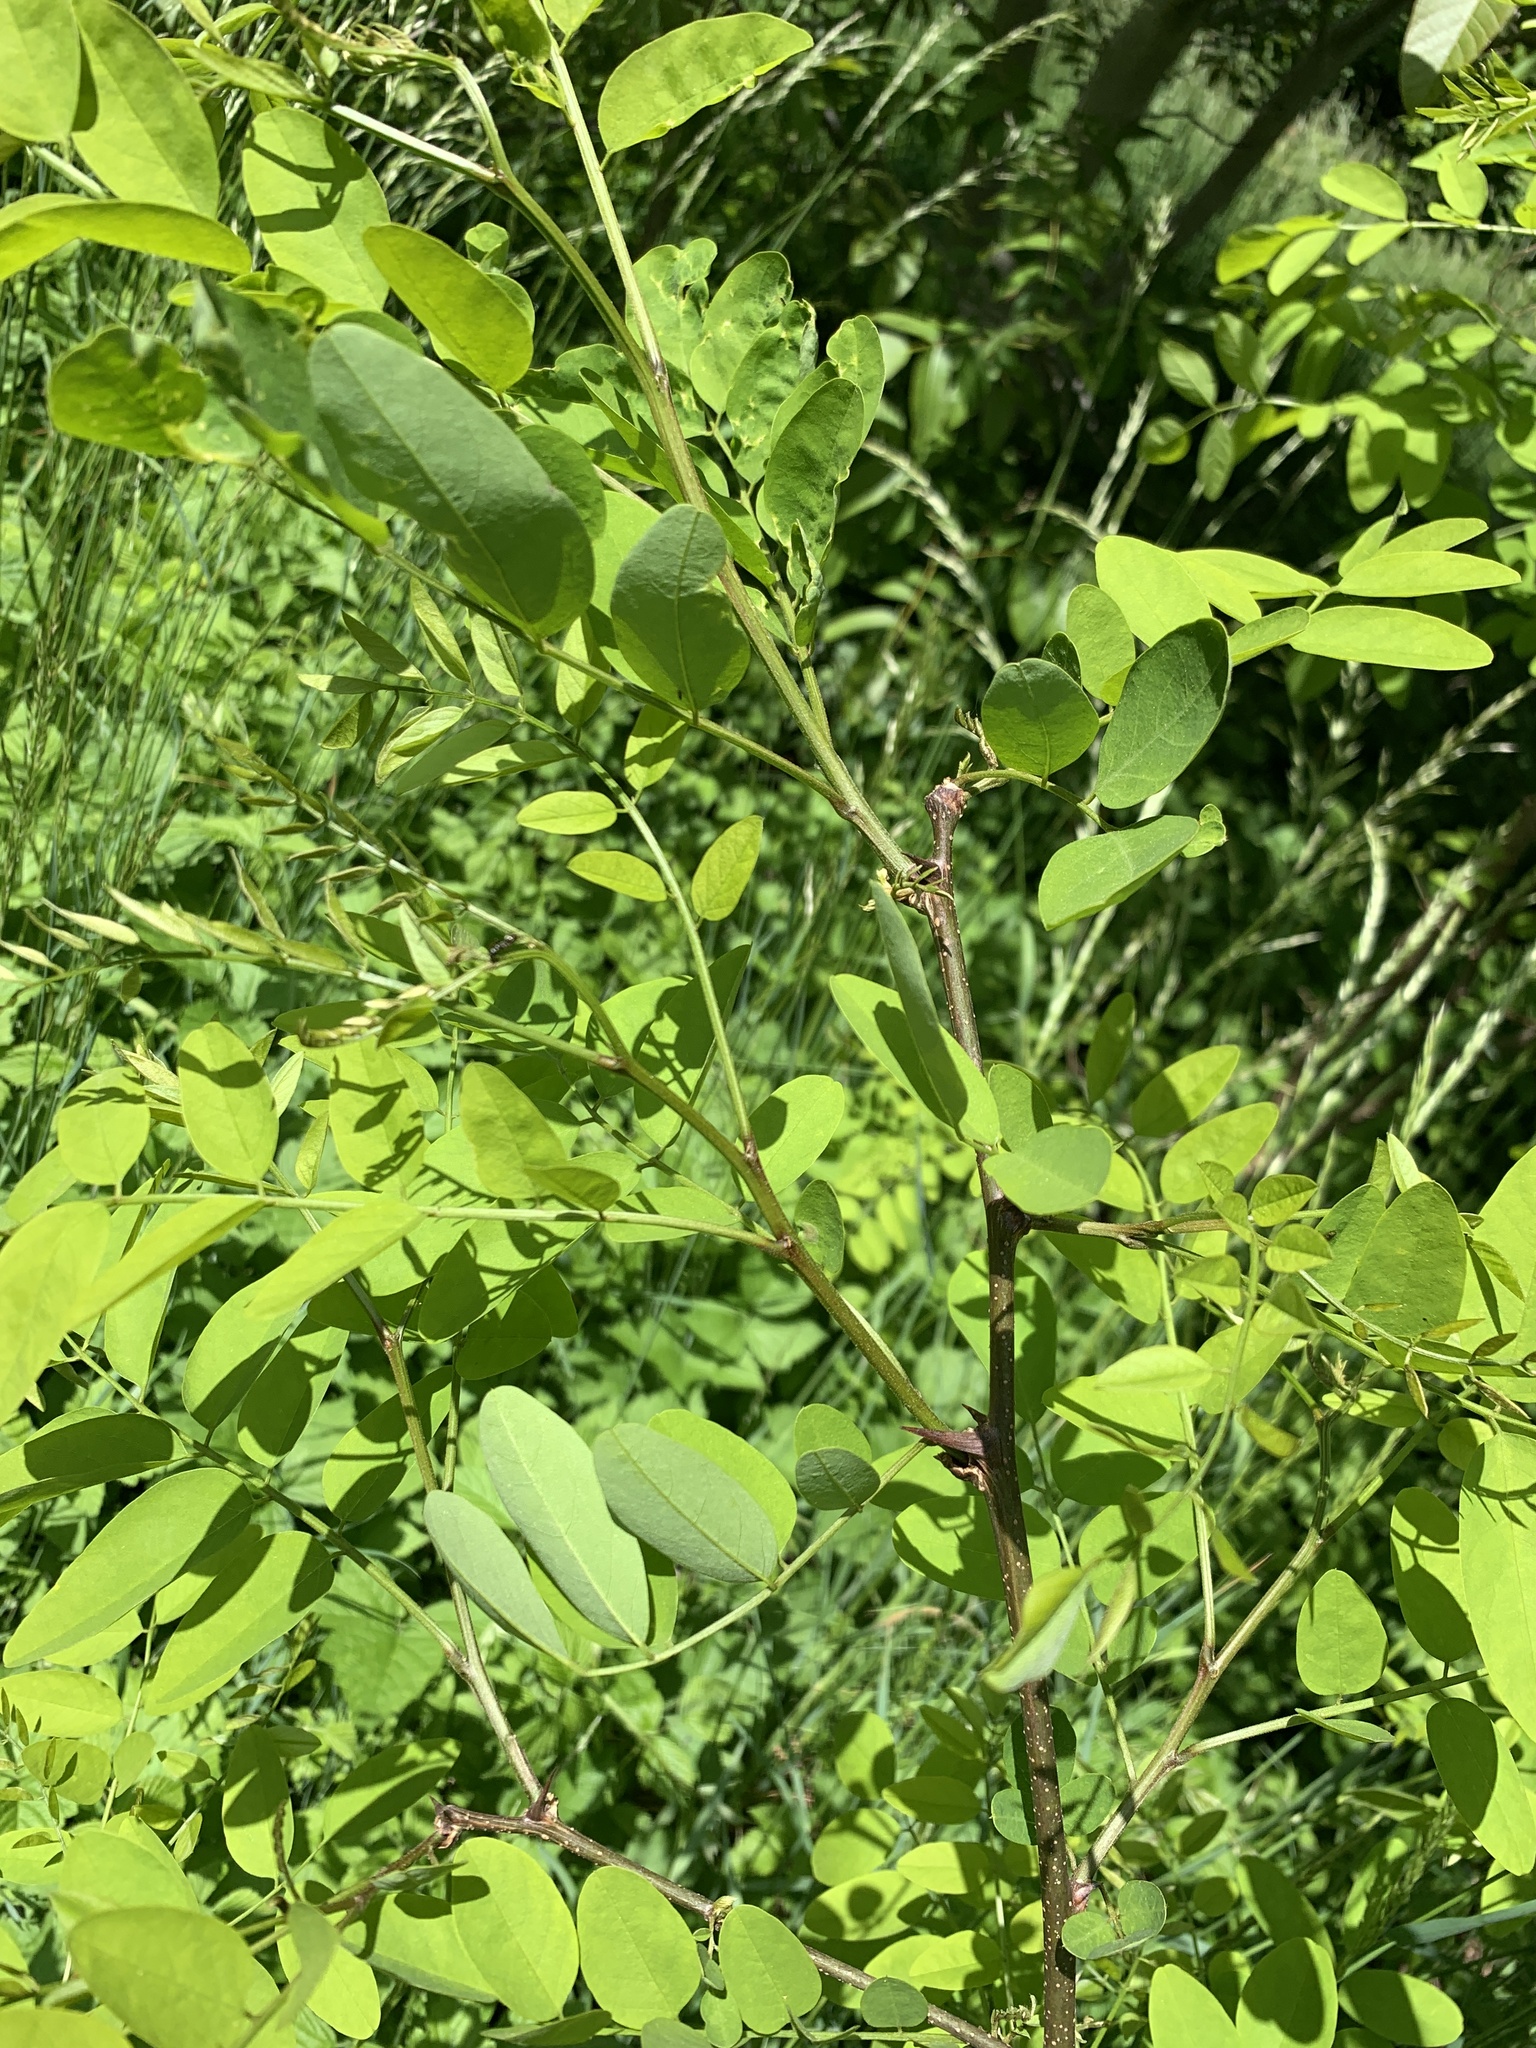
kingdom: Plantae
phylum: Tracheophyta
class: Magnoliopsida
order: Fabales
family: Fabaceae
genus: Robinia
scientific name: Robinia pseudoacacia
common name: Black locust
